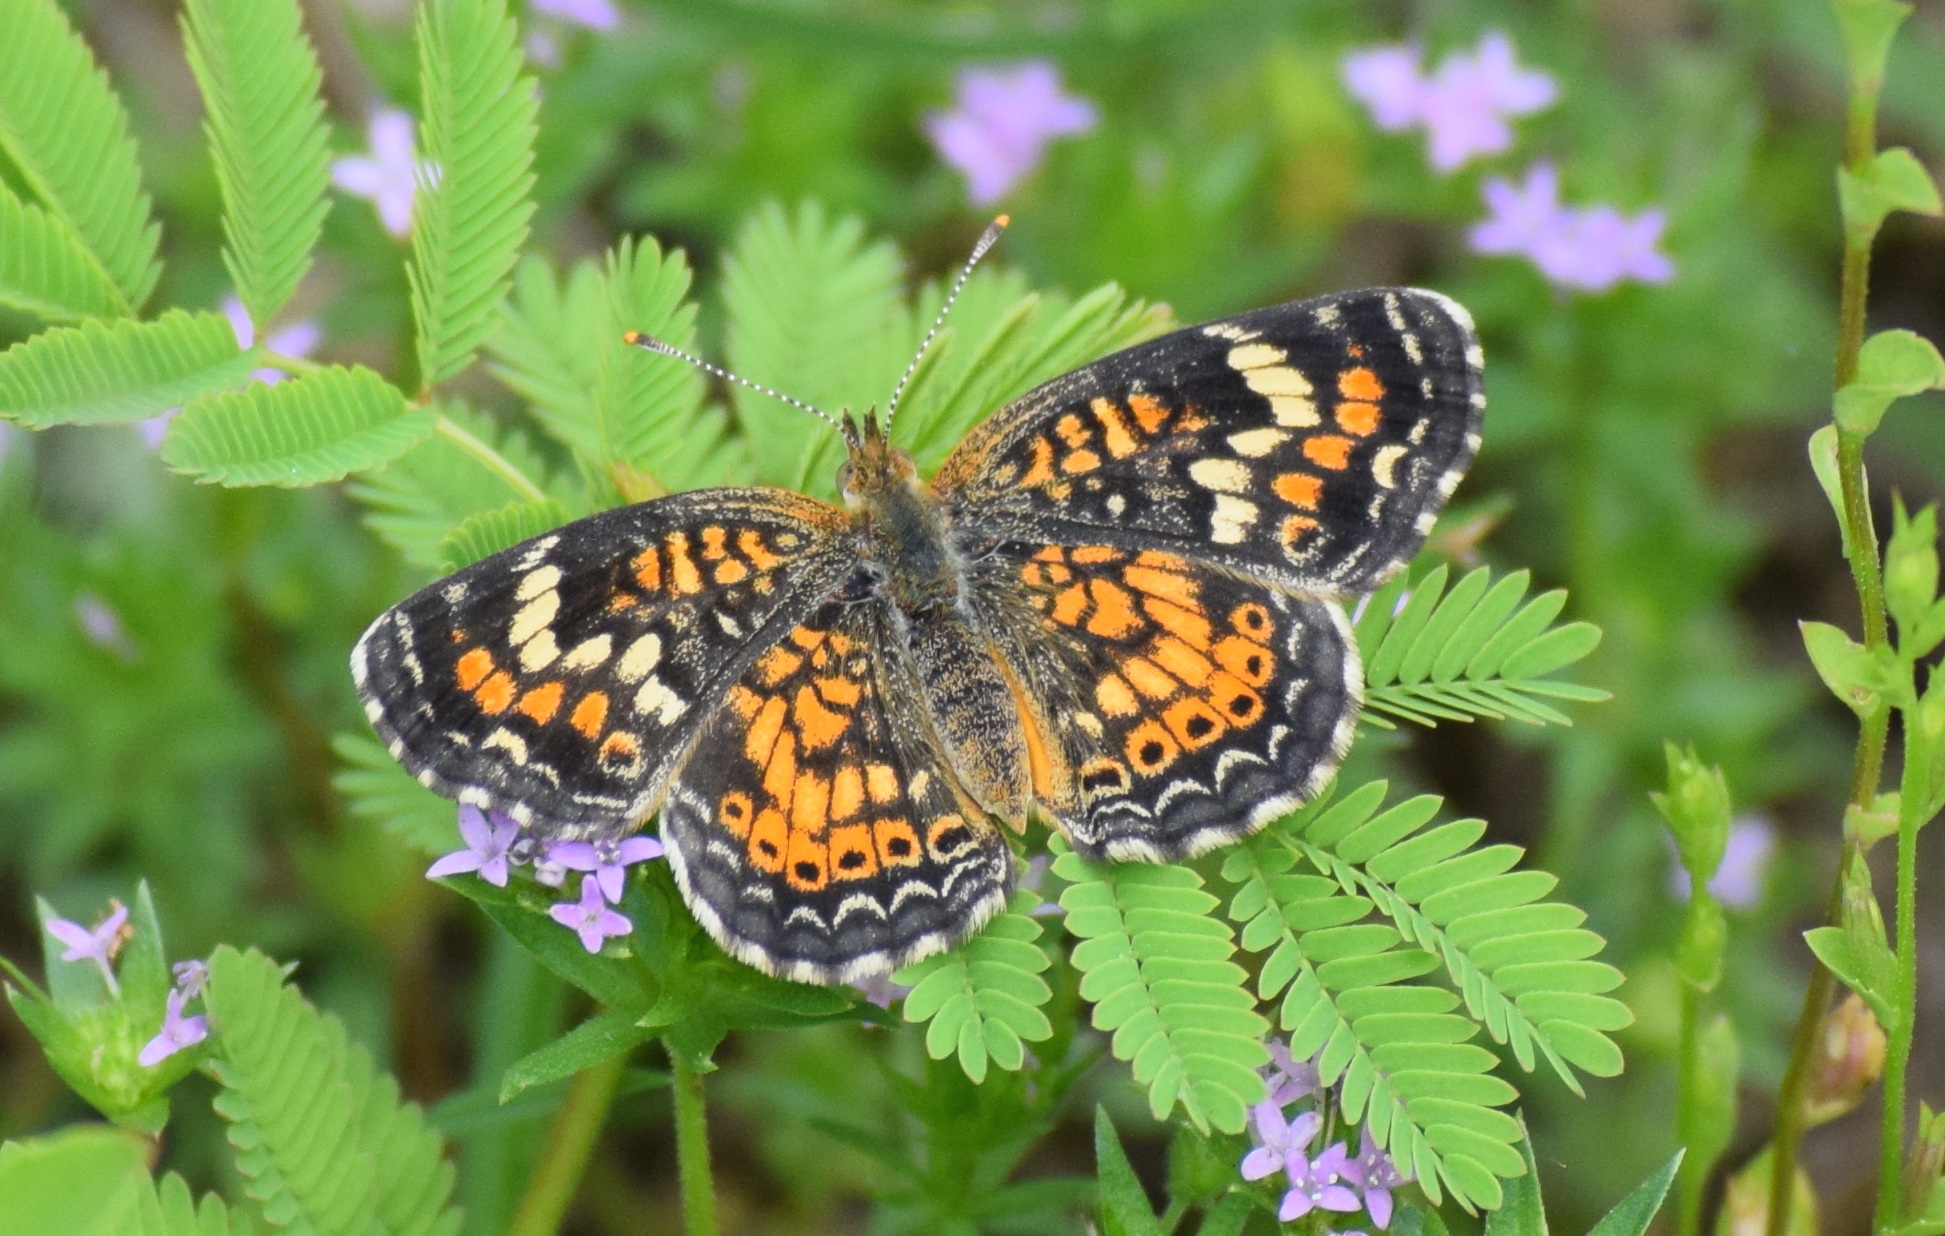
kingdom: Animalia
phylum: Arthropoda
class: Insecta
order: Lepidoptera
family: Nymphalidae
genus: Phyciodes
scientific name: Phyciodes phaon
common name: Phaon crescent
